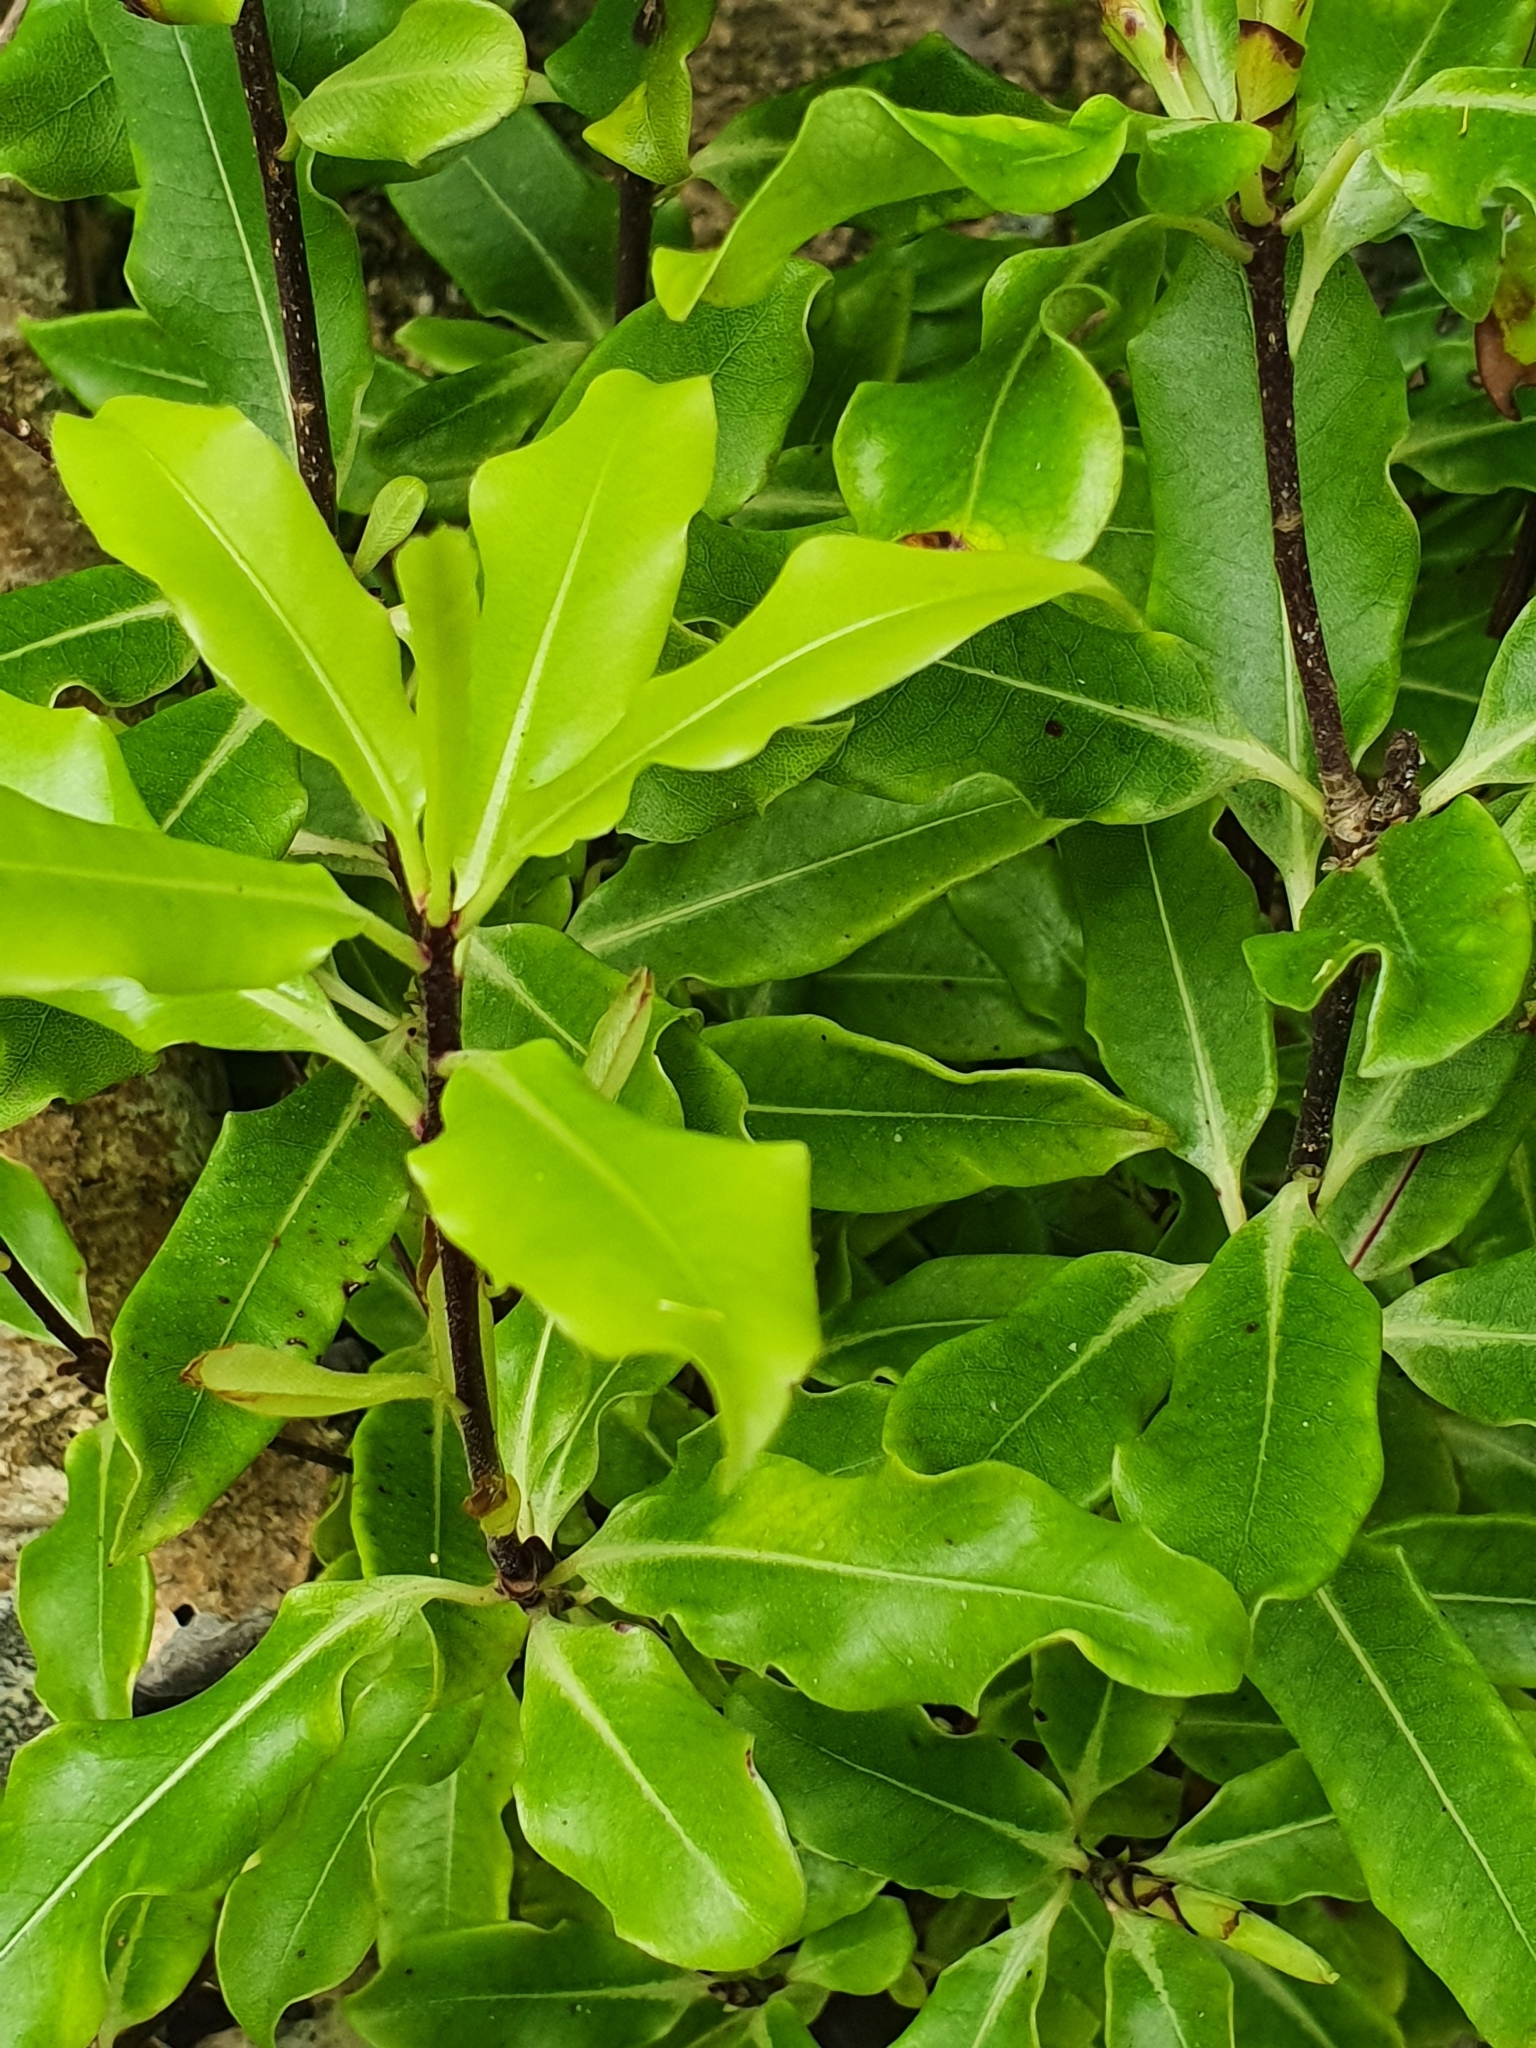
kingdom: Plantae
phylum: Tracheophyta
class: Magnoliopsida
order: Apiales
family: Pittosporaceae
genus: Pittosporum
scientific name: Pittosporum eugenioides
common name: Lemonwood
